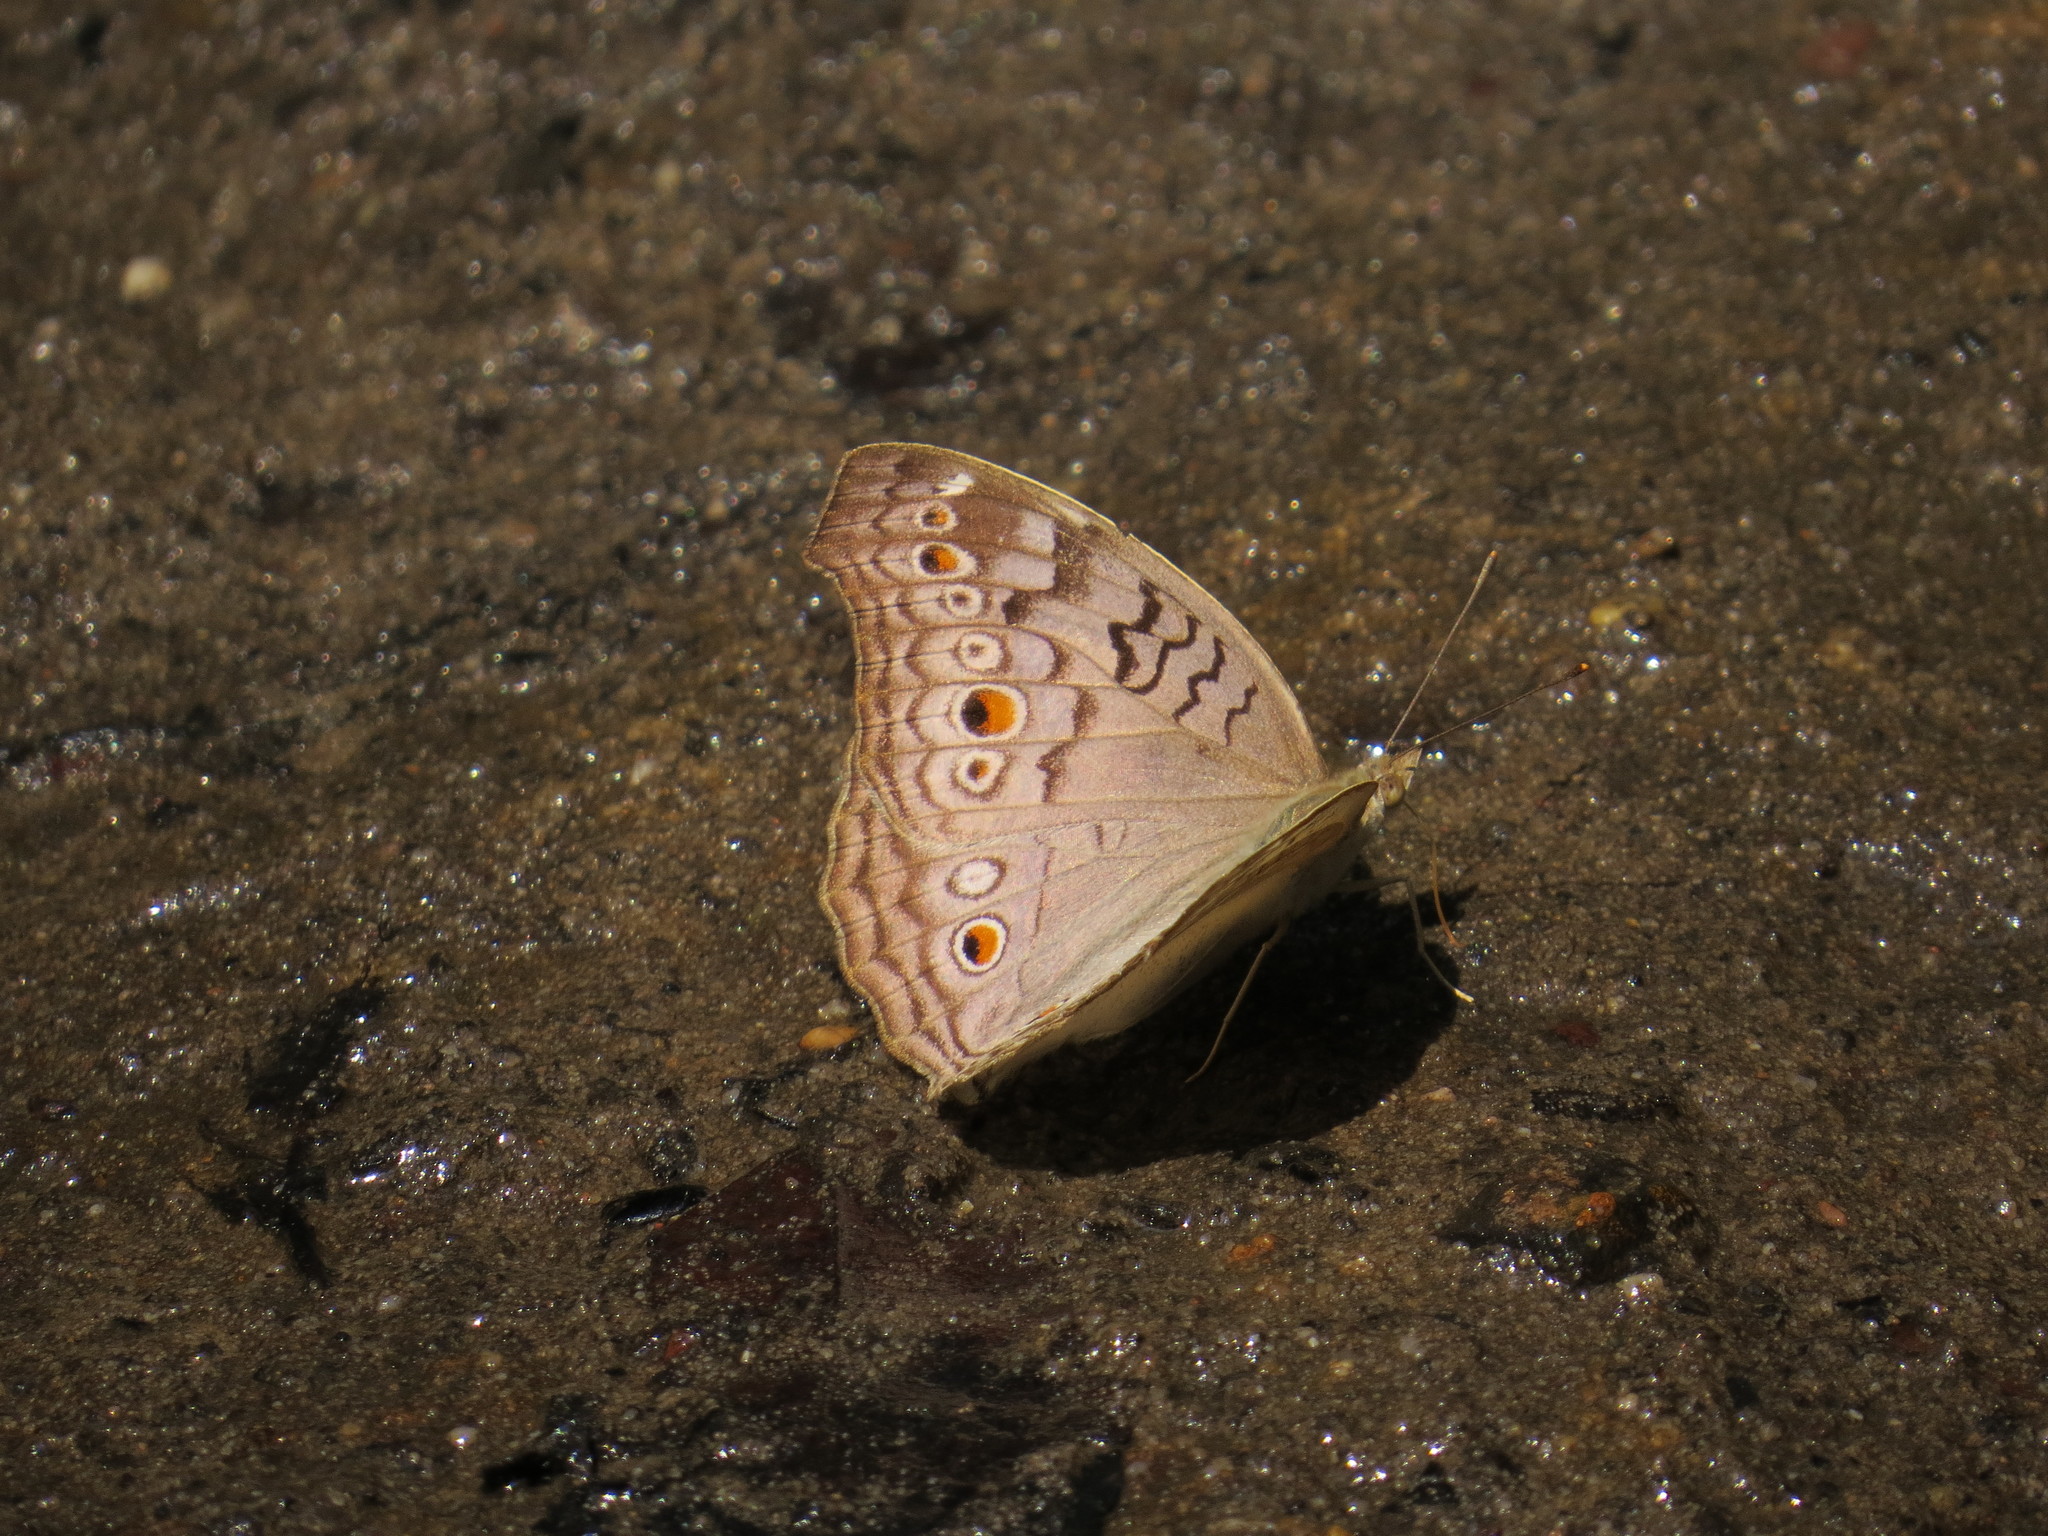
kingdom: Animalia
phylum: Arthropoda
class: Insecta
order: Lepidoptera
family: Nymphalidae
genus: Junonia
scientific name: Junonia atlites
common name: Grey pansy
